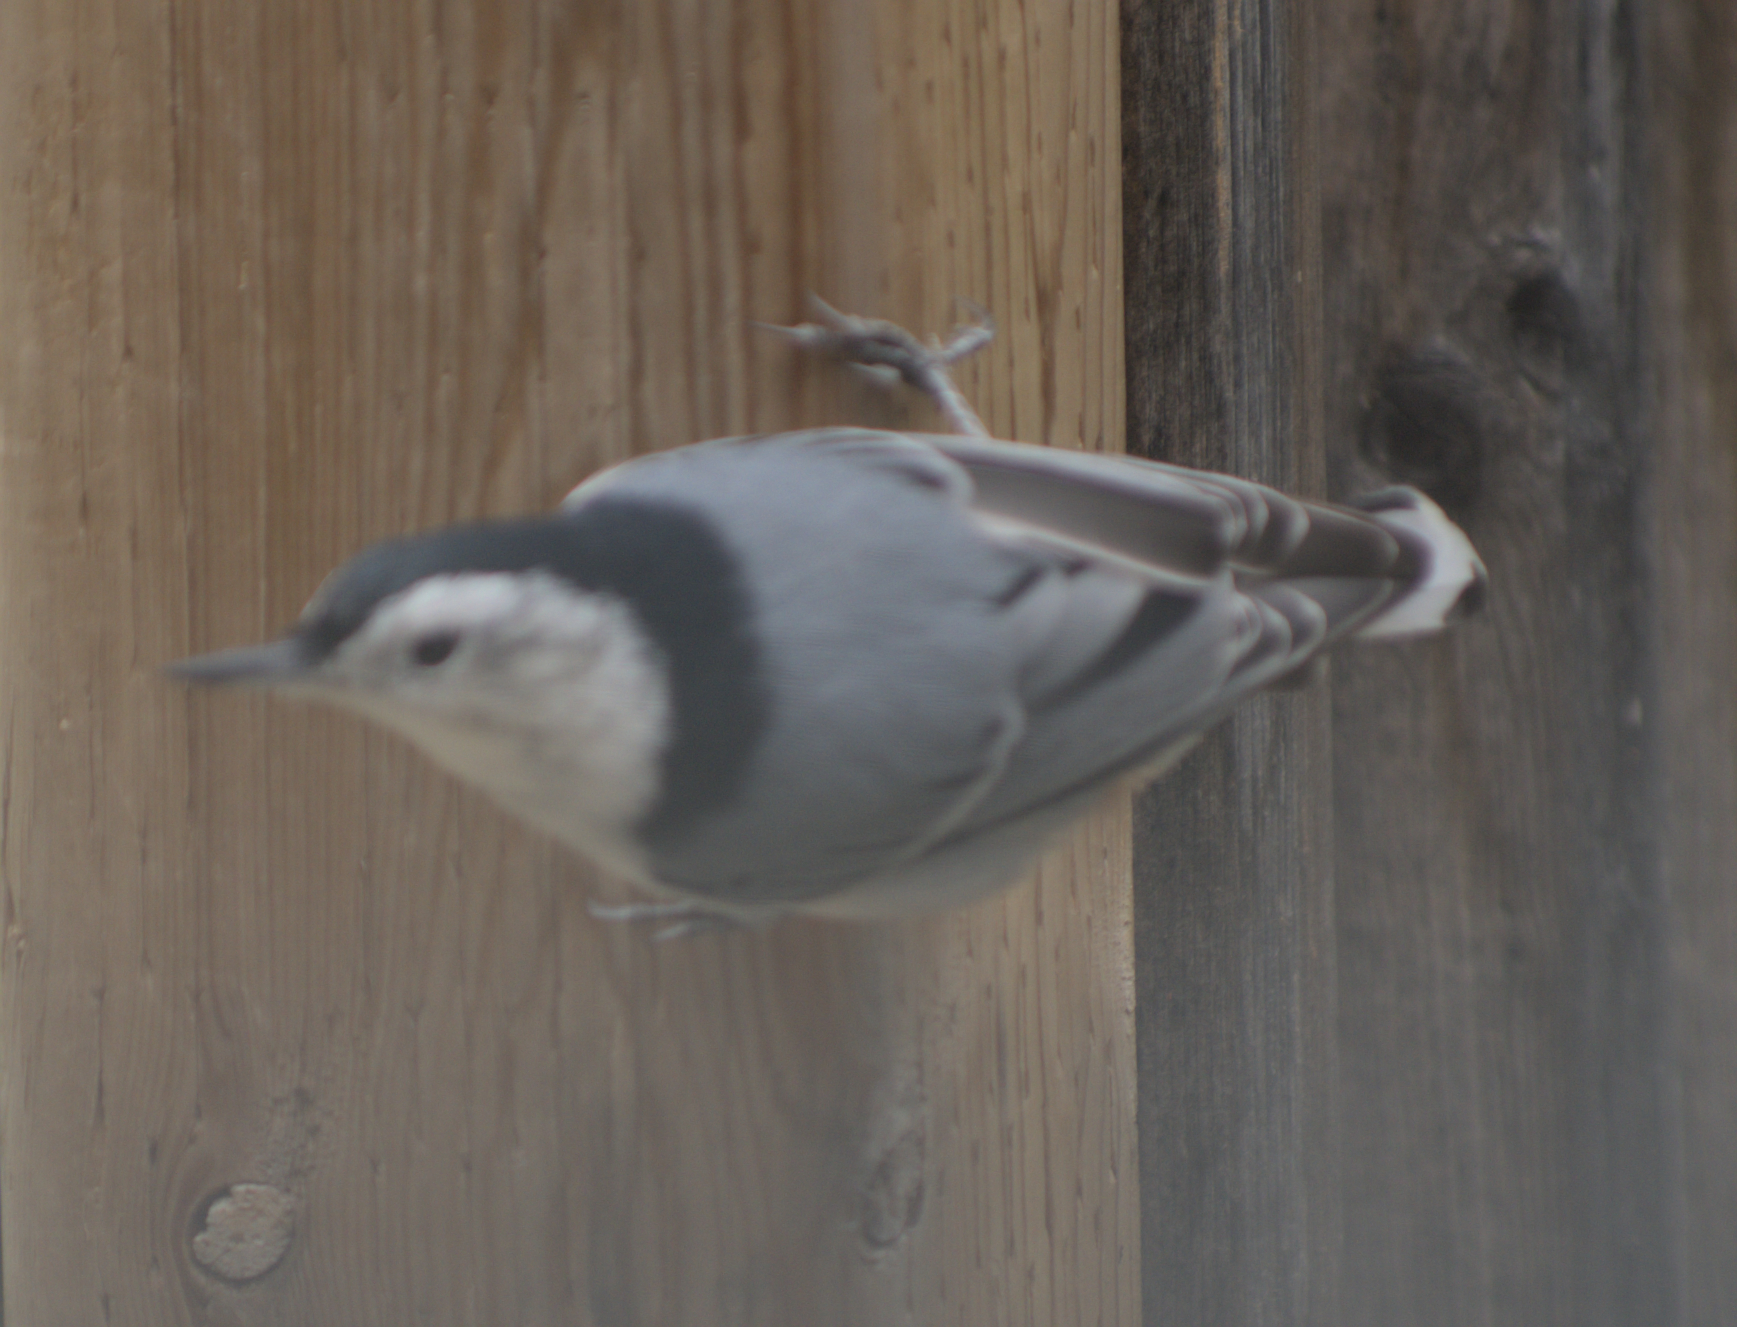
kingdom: Animalia
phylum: Chordata
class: Aves
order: Passeriformes
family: Sittidae
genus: Sitta
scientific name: Sitta carolinensis
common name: White-breasted nuthatch
